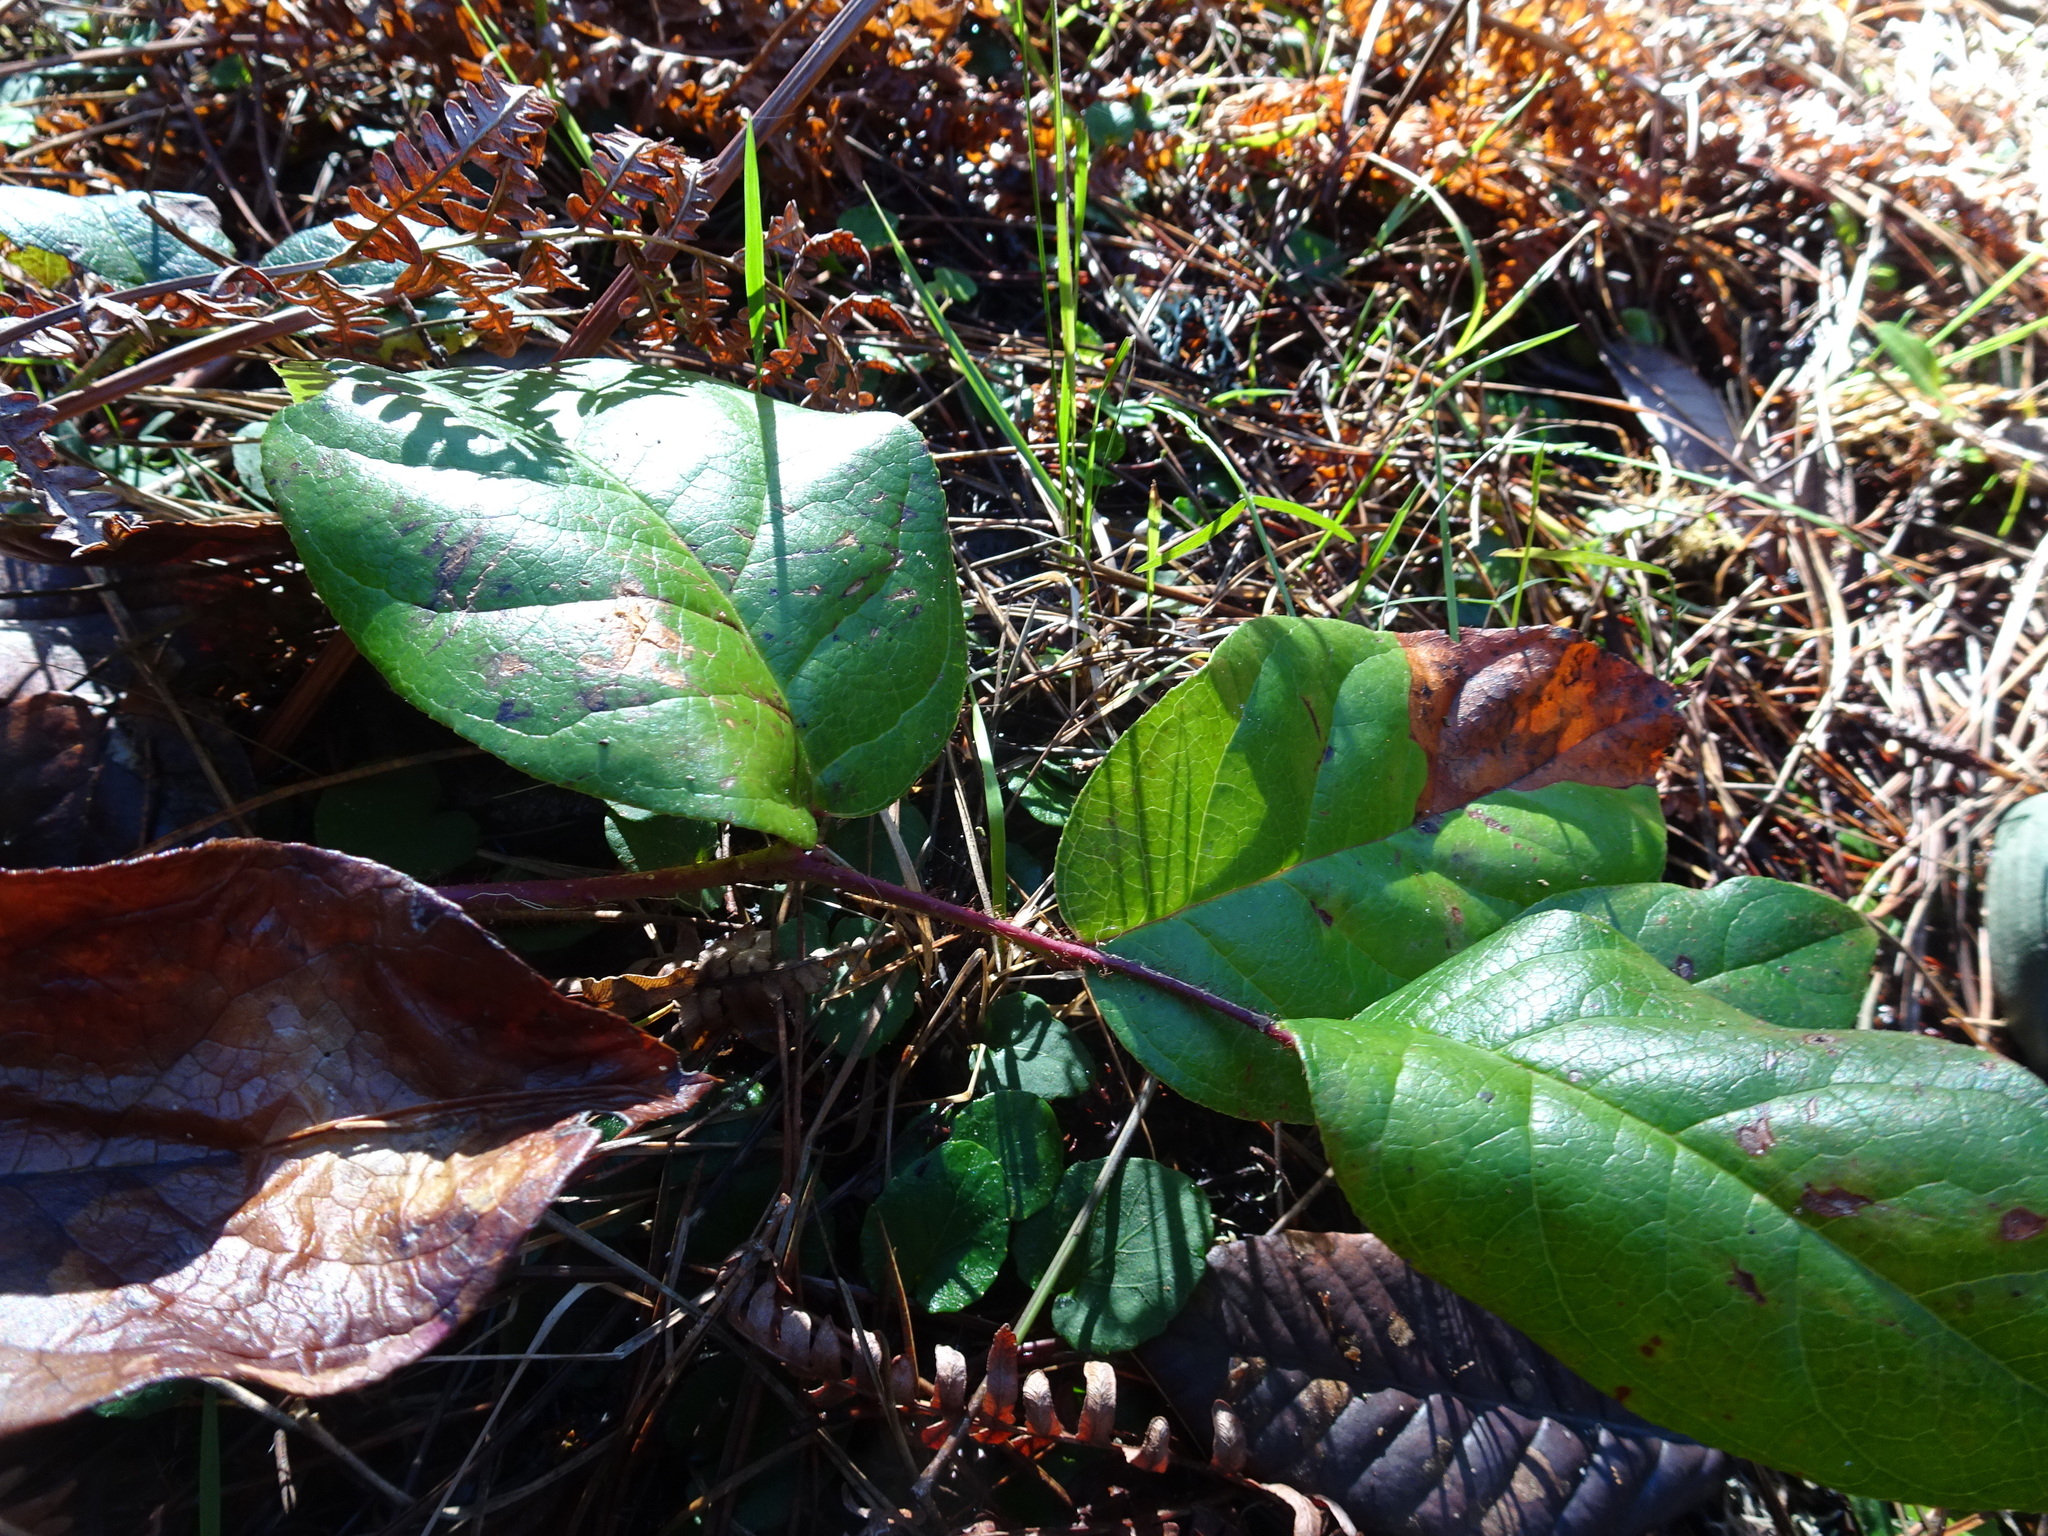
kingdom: Plantae
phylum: Tracheophyta
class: Magnoliopsida
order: Ericales
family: Ericaceae
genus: Gaultheria
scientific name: Gaultheria shallon
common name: Shallon
